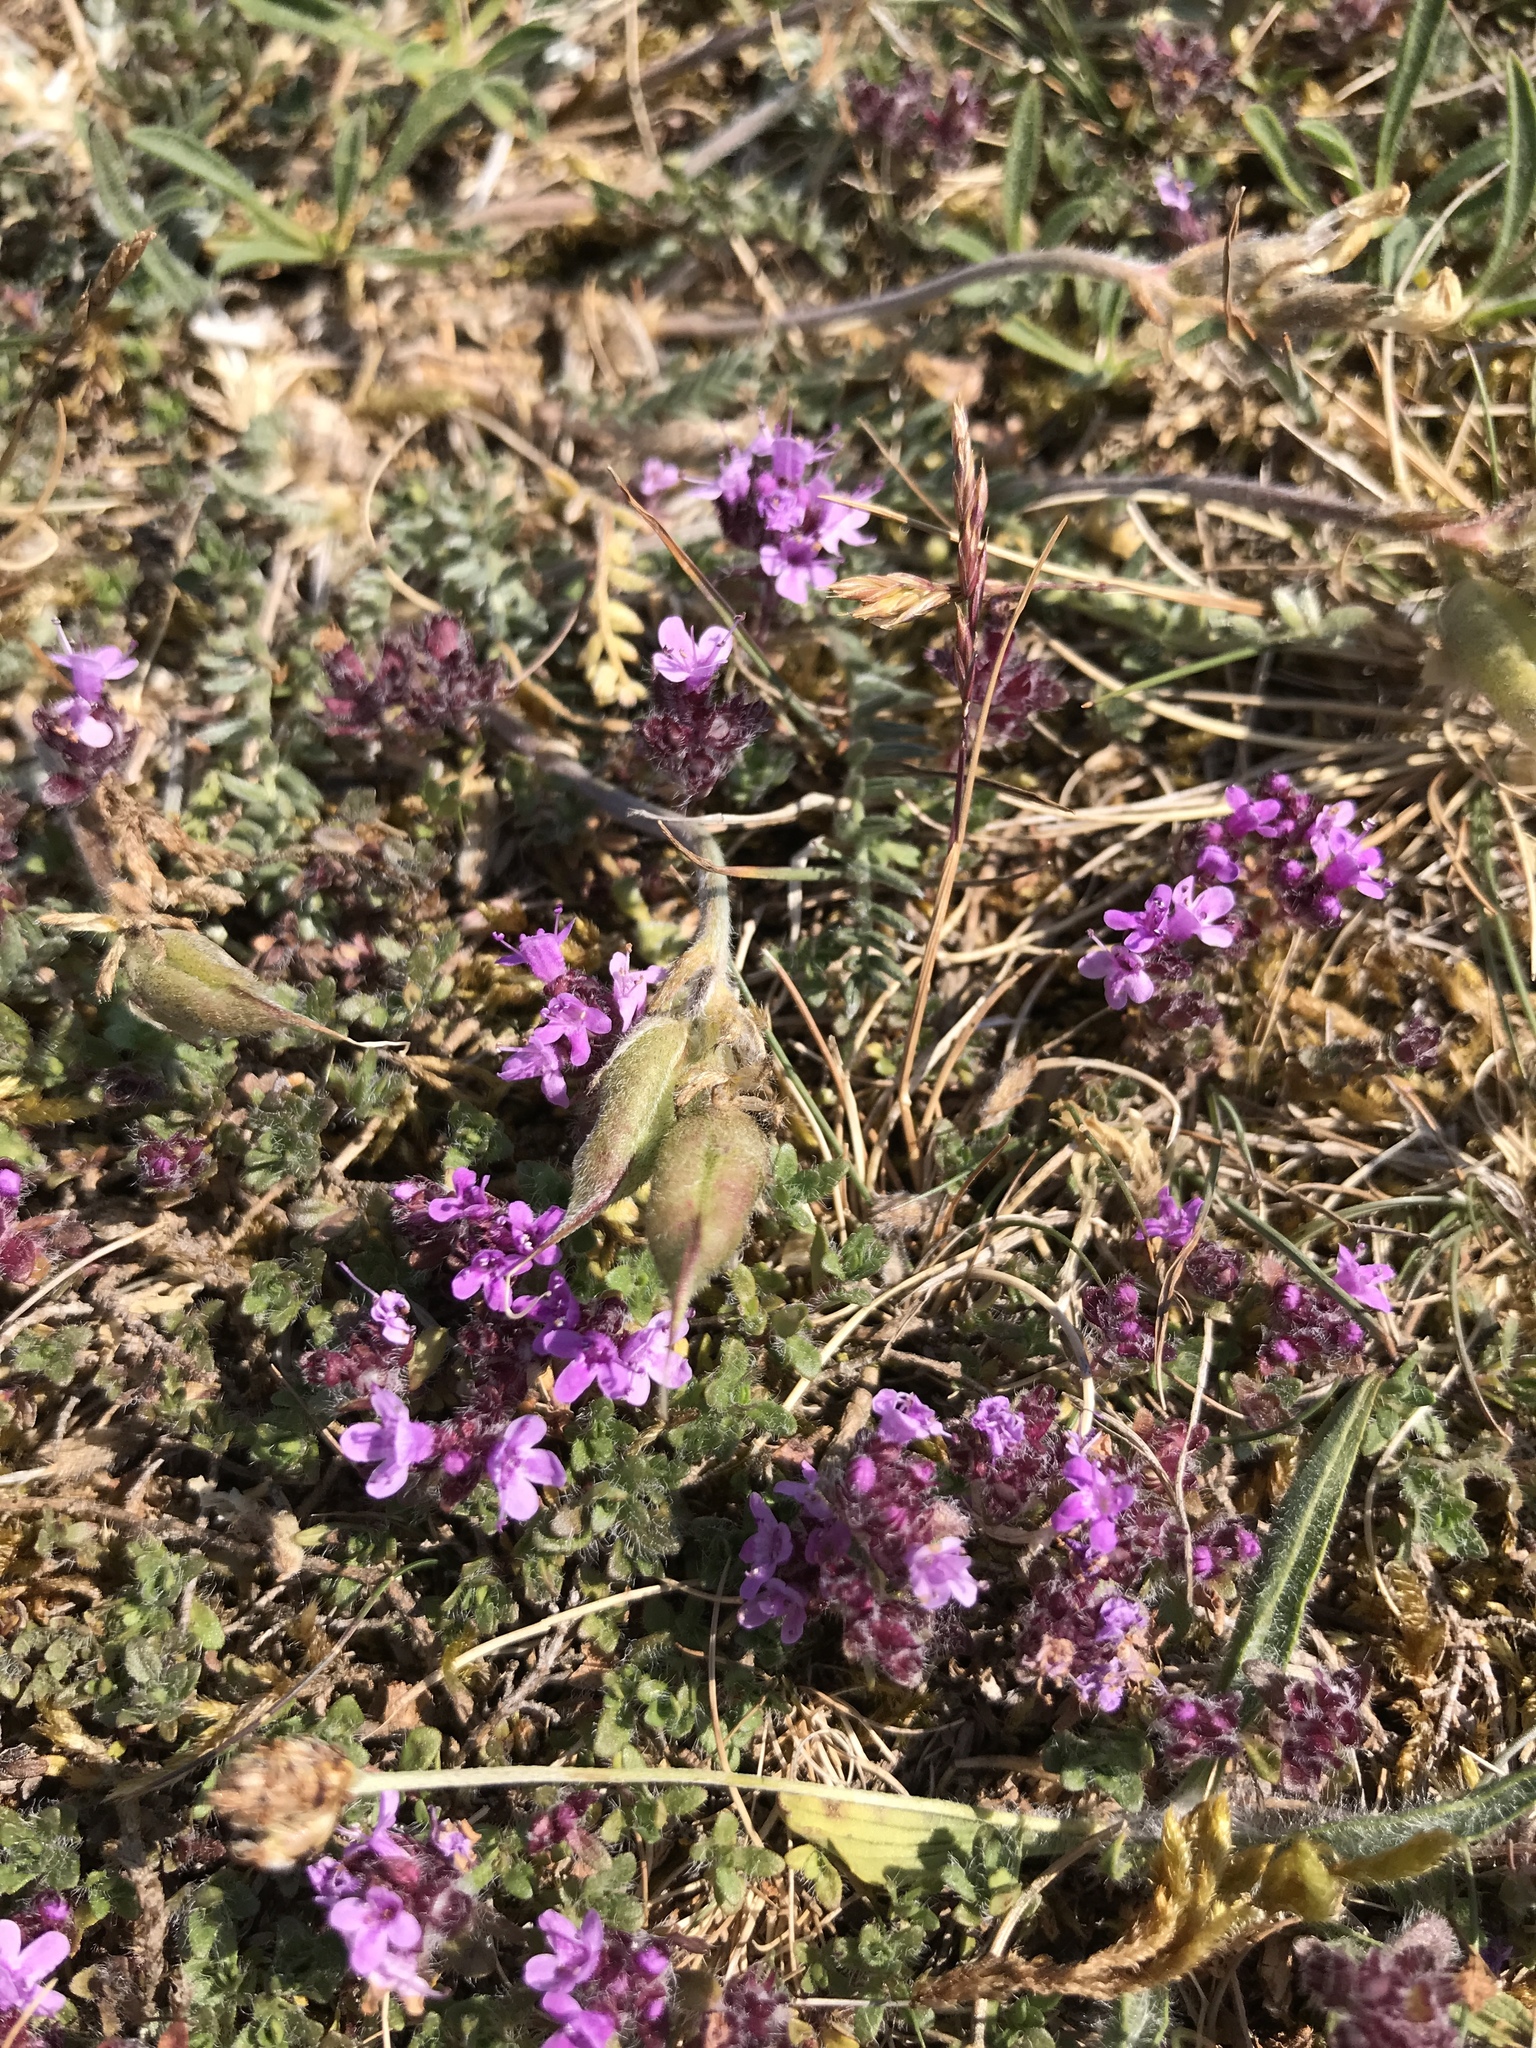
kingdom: Plantae
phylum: Tracheophyta
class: Magnoliopsida
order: Lamiales
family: Lamiaceae
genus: Thymus
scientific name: Thymus serpyllum
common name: Breckland thyme
